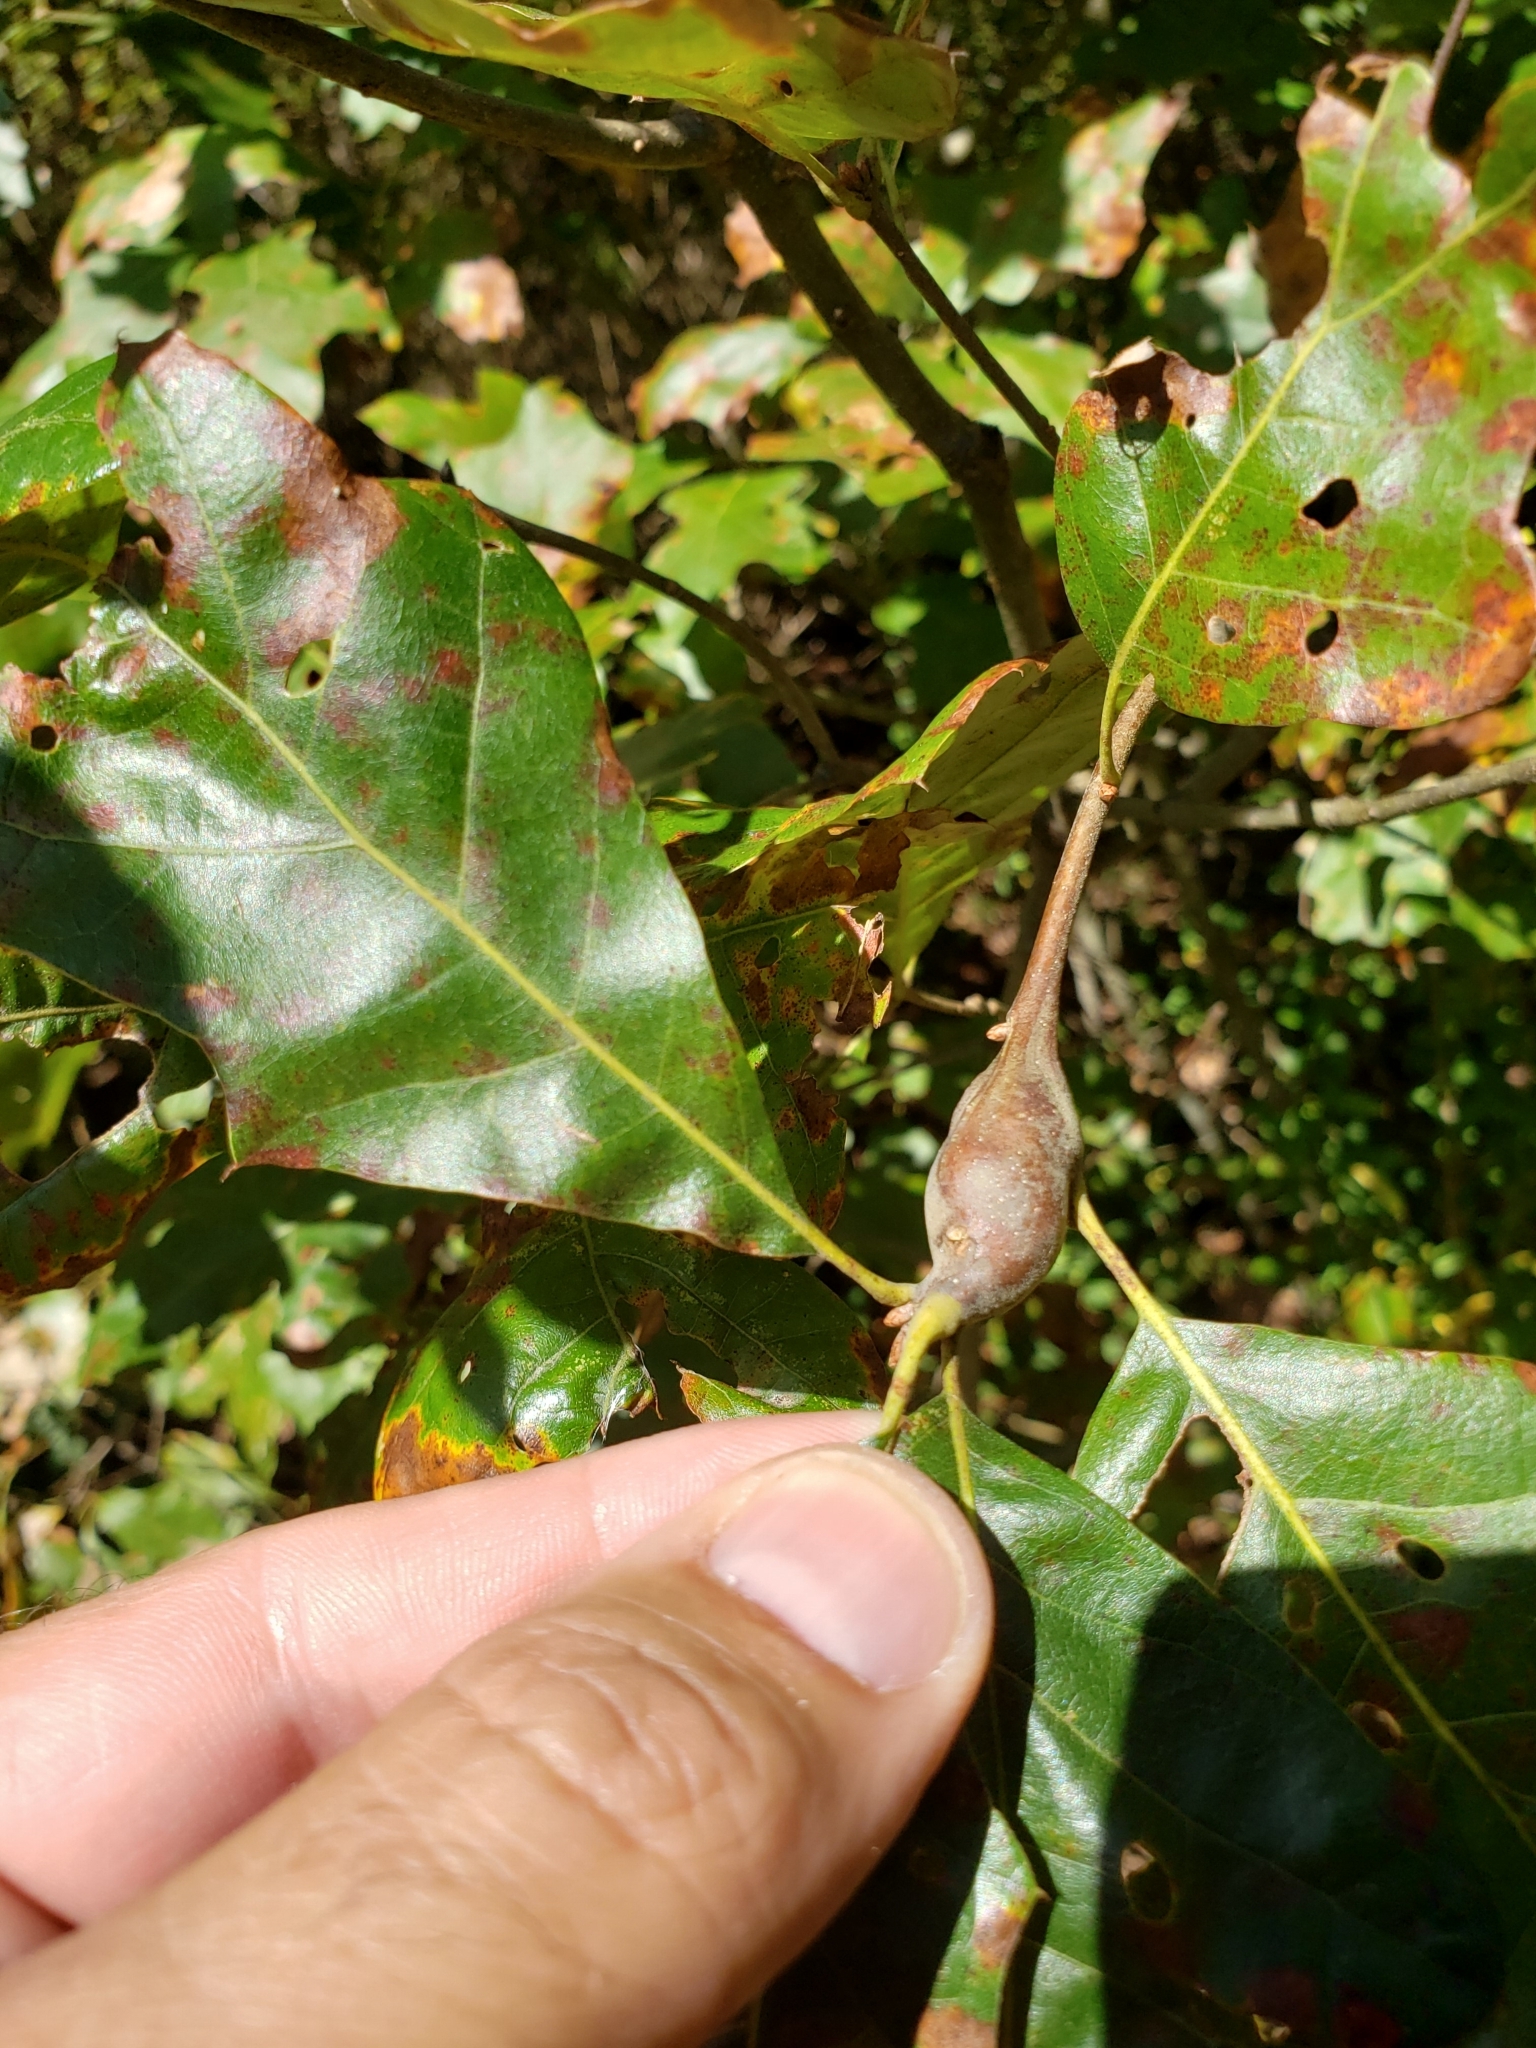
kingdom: Animalia
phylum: Arthropoda
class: Insecta
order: Hymenoptera
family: Cynipidae
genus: Zapatella
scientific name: Zapatella quercusphellos
